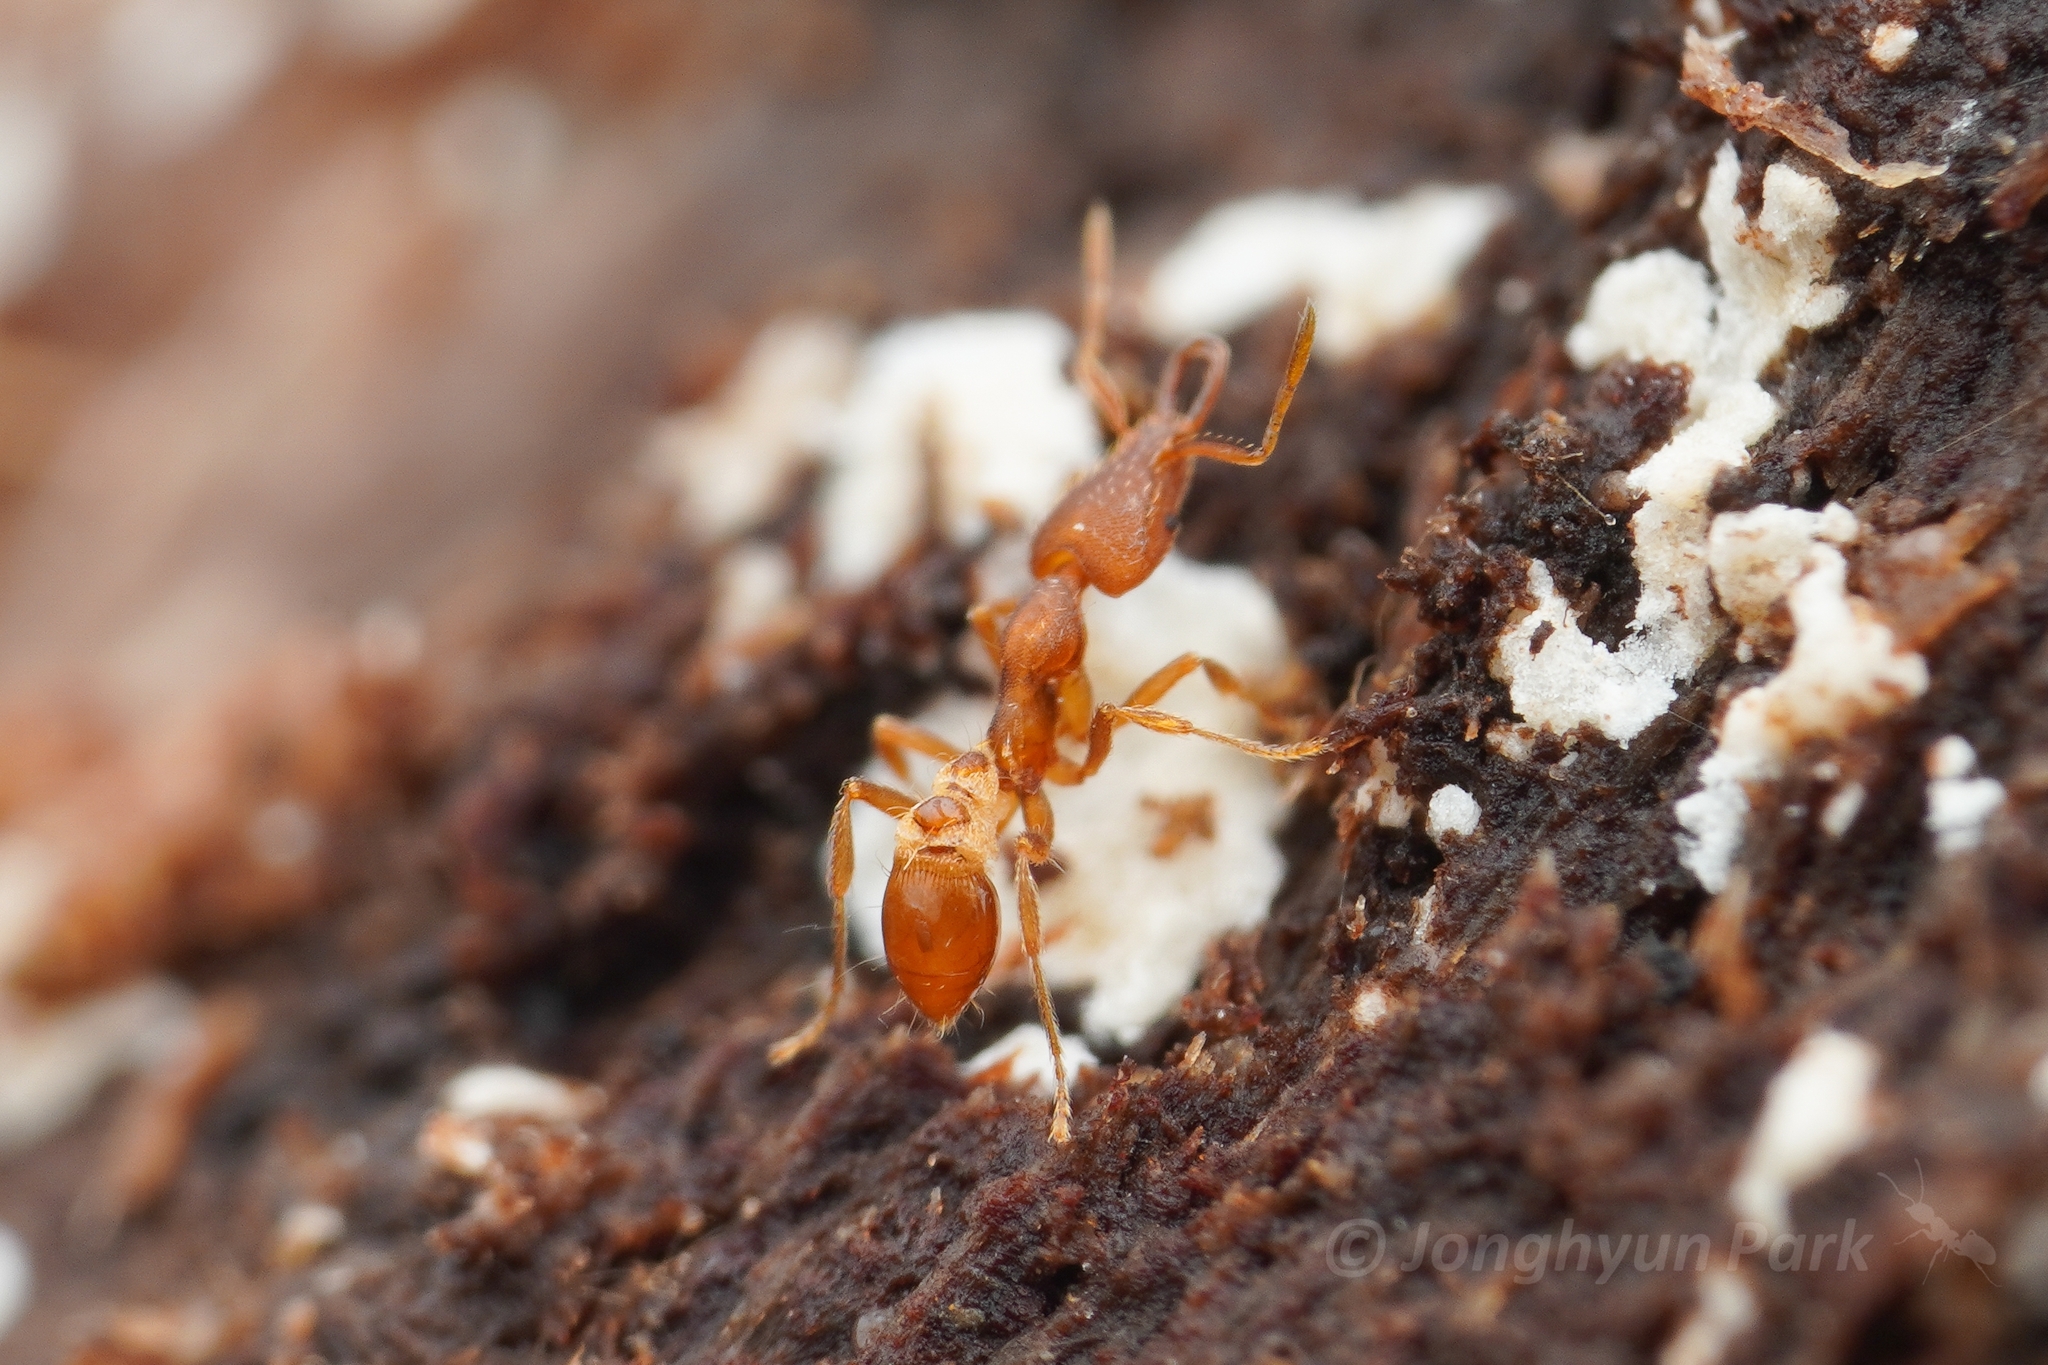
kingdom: Animalia
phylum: Arthropoda
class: Insecta
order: Hymenoptera
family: Formicidae
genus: Strumigenys
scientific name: Strumigenys solifontis
